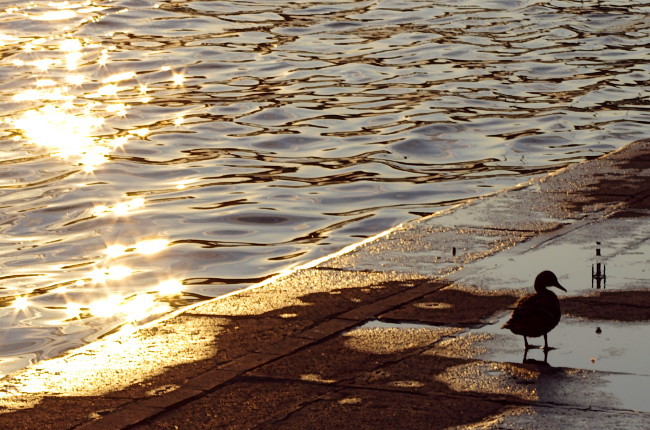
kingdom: Animalia
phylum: Chordata
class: Aves
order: Anseriformes
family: Anatidae
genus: Anas
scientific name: Anas platyrhynchos
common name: Mallard
